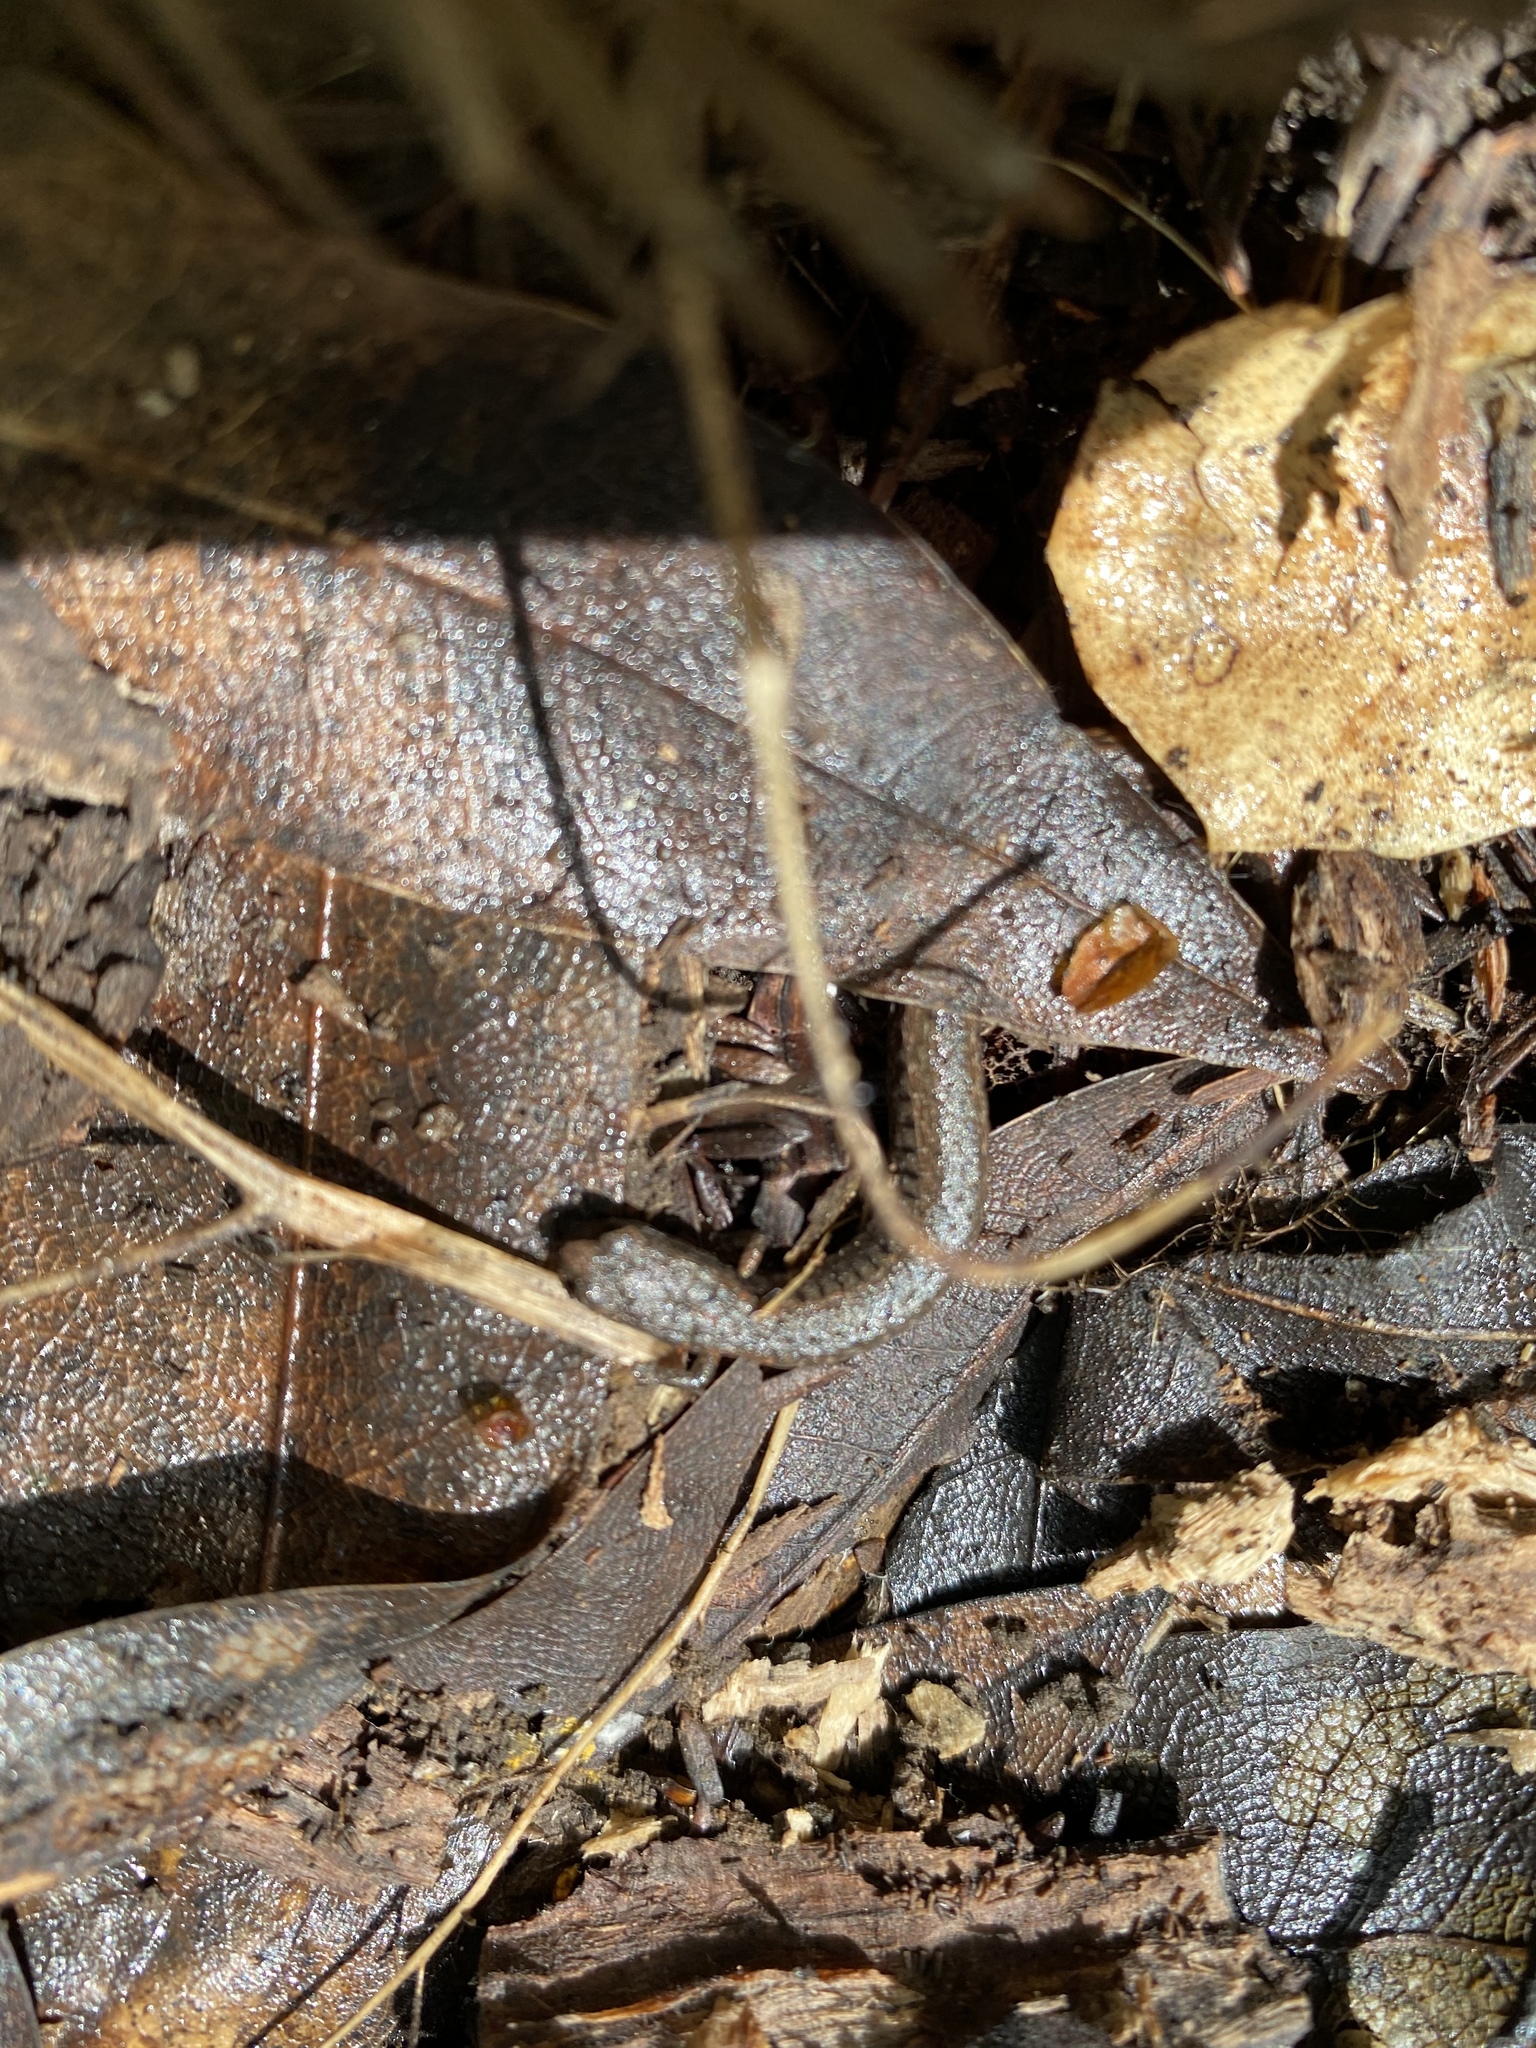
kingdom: Animalia
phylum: Chordata
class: Amphibia
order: Caudata
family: Plethodontidae
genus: Batrachoseps
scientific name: Batrachoseps attenuatus
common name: California slender salamander
